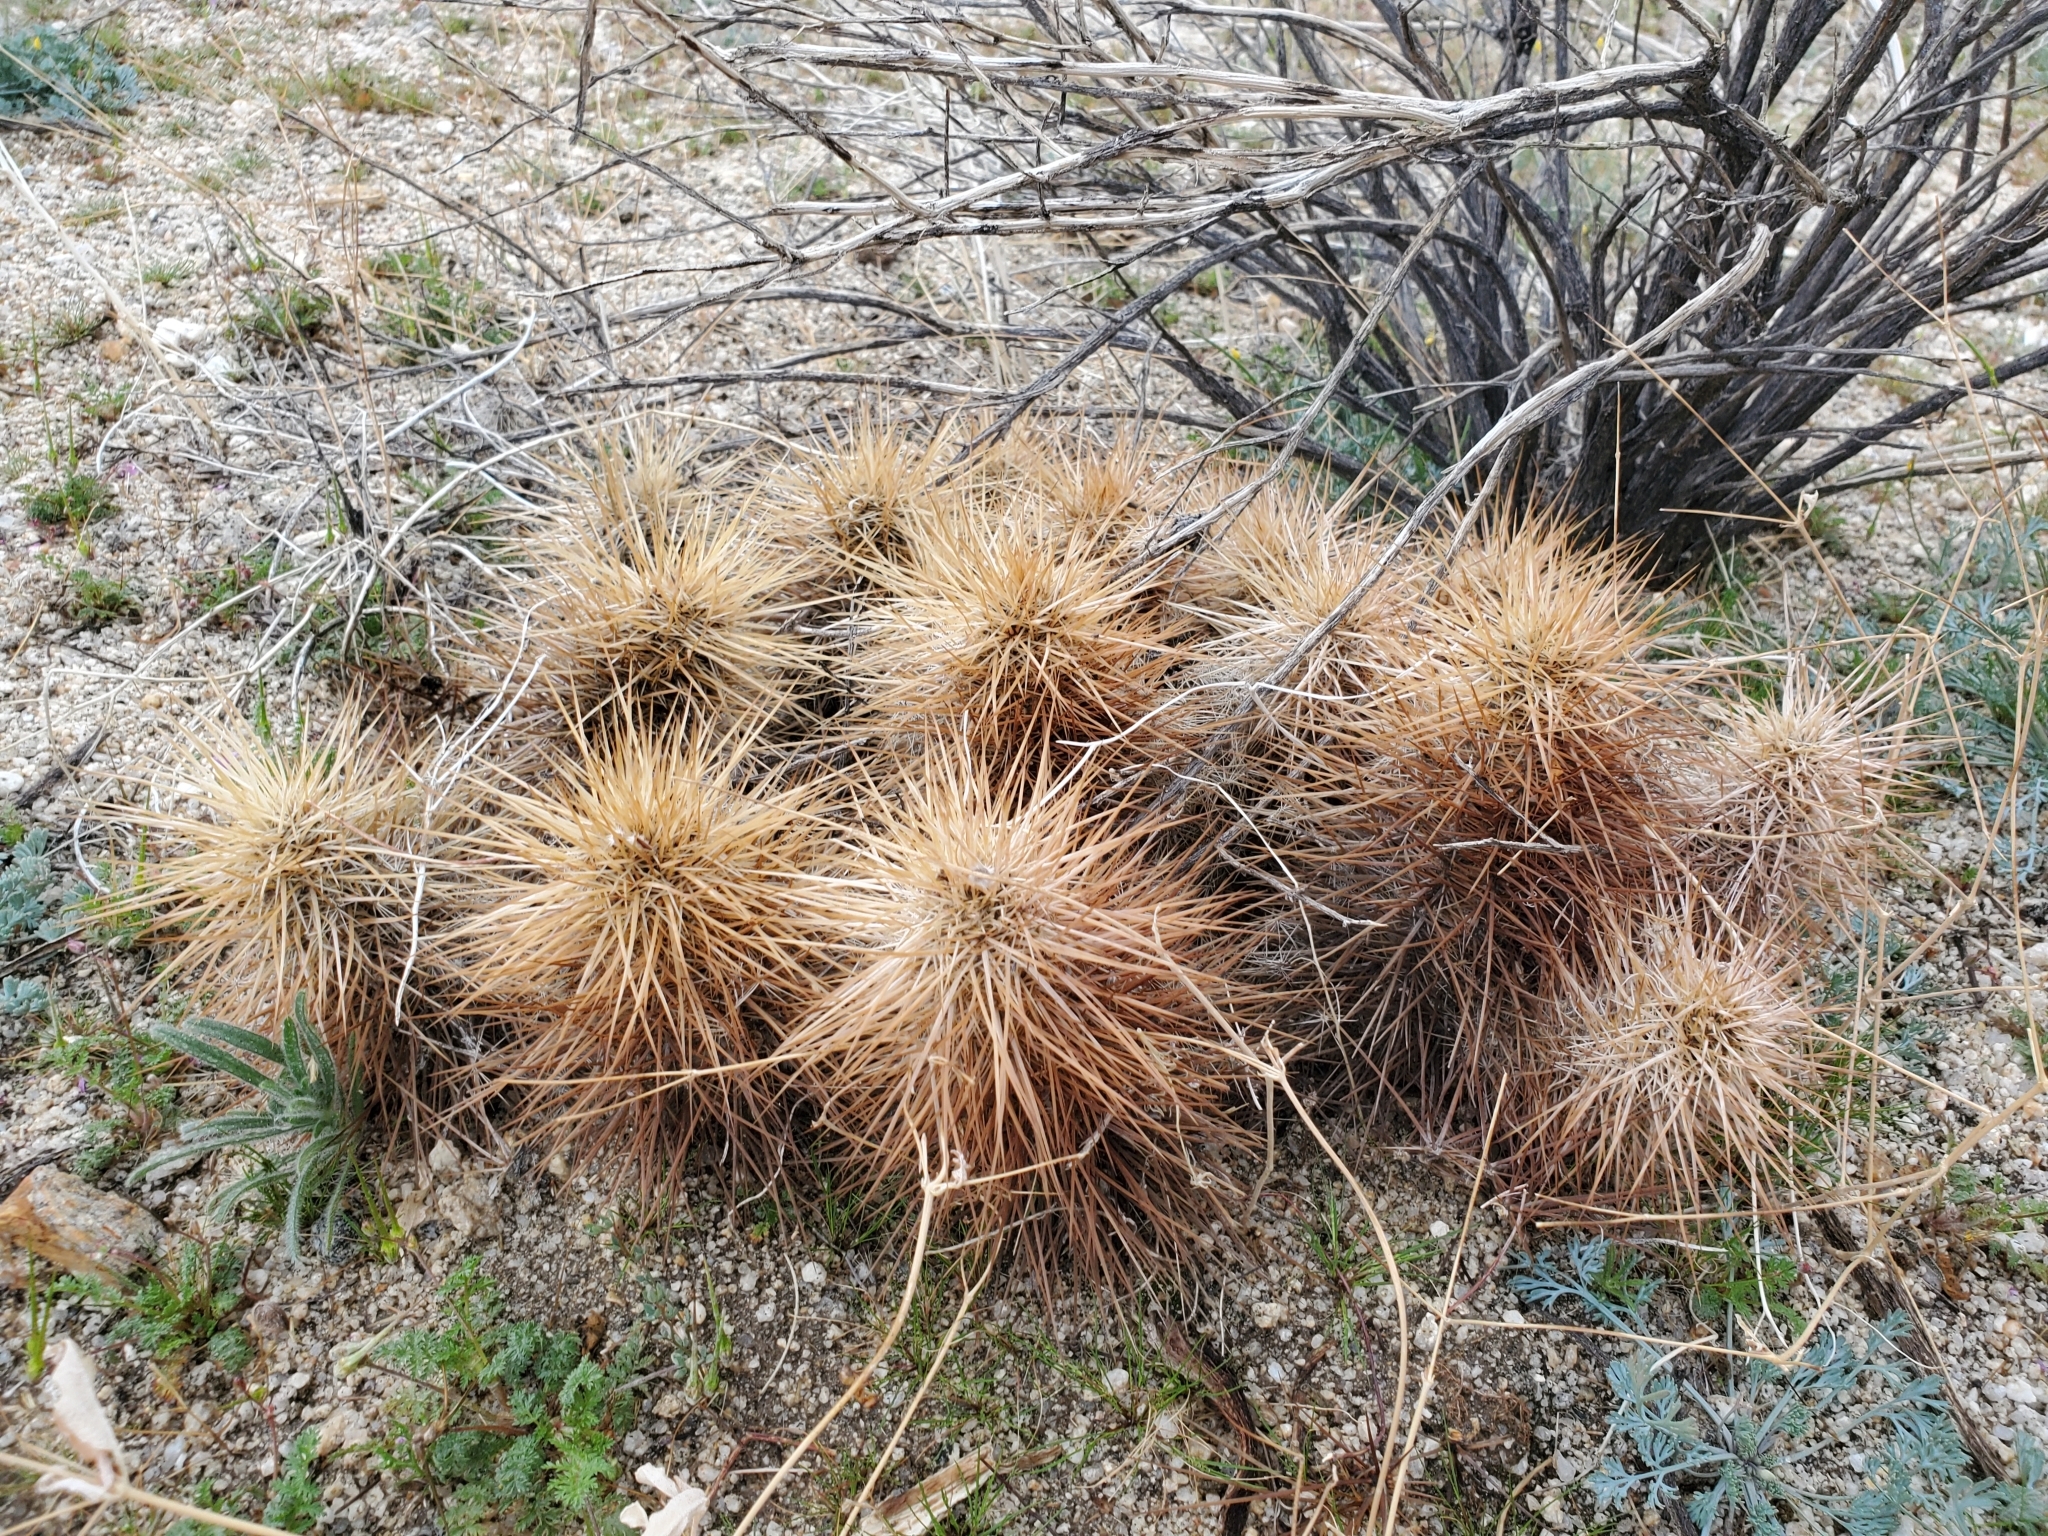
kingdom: Plantae
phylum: Tracheophyta
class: Magnoliopsida
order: Caryophyllales
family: Cactaceae
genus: Echinocereus
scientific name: Echinocereus engelmannii
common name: Engelmann's hedgehog cactus
